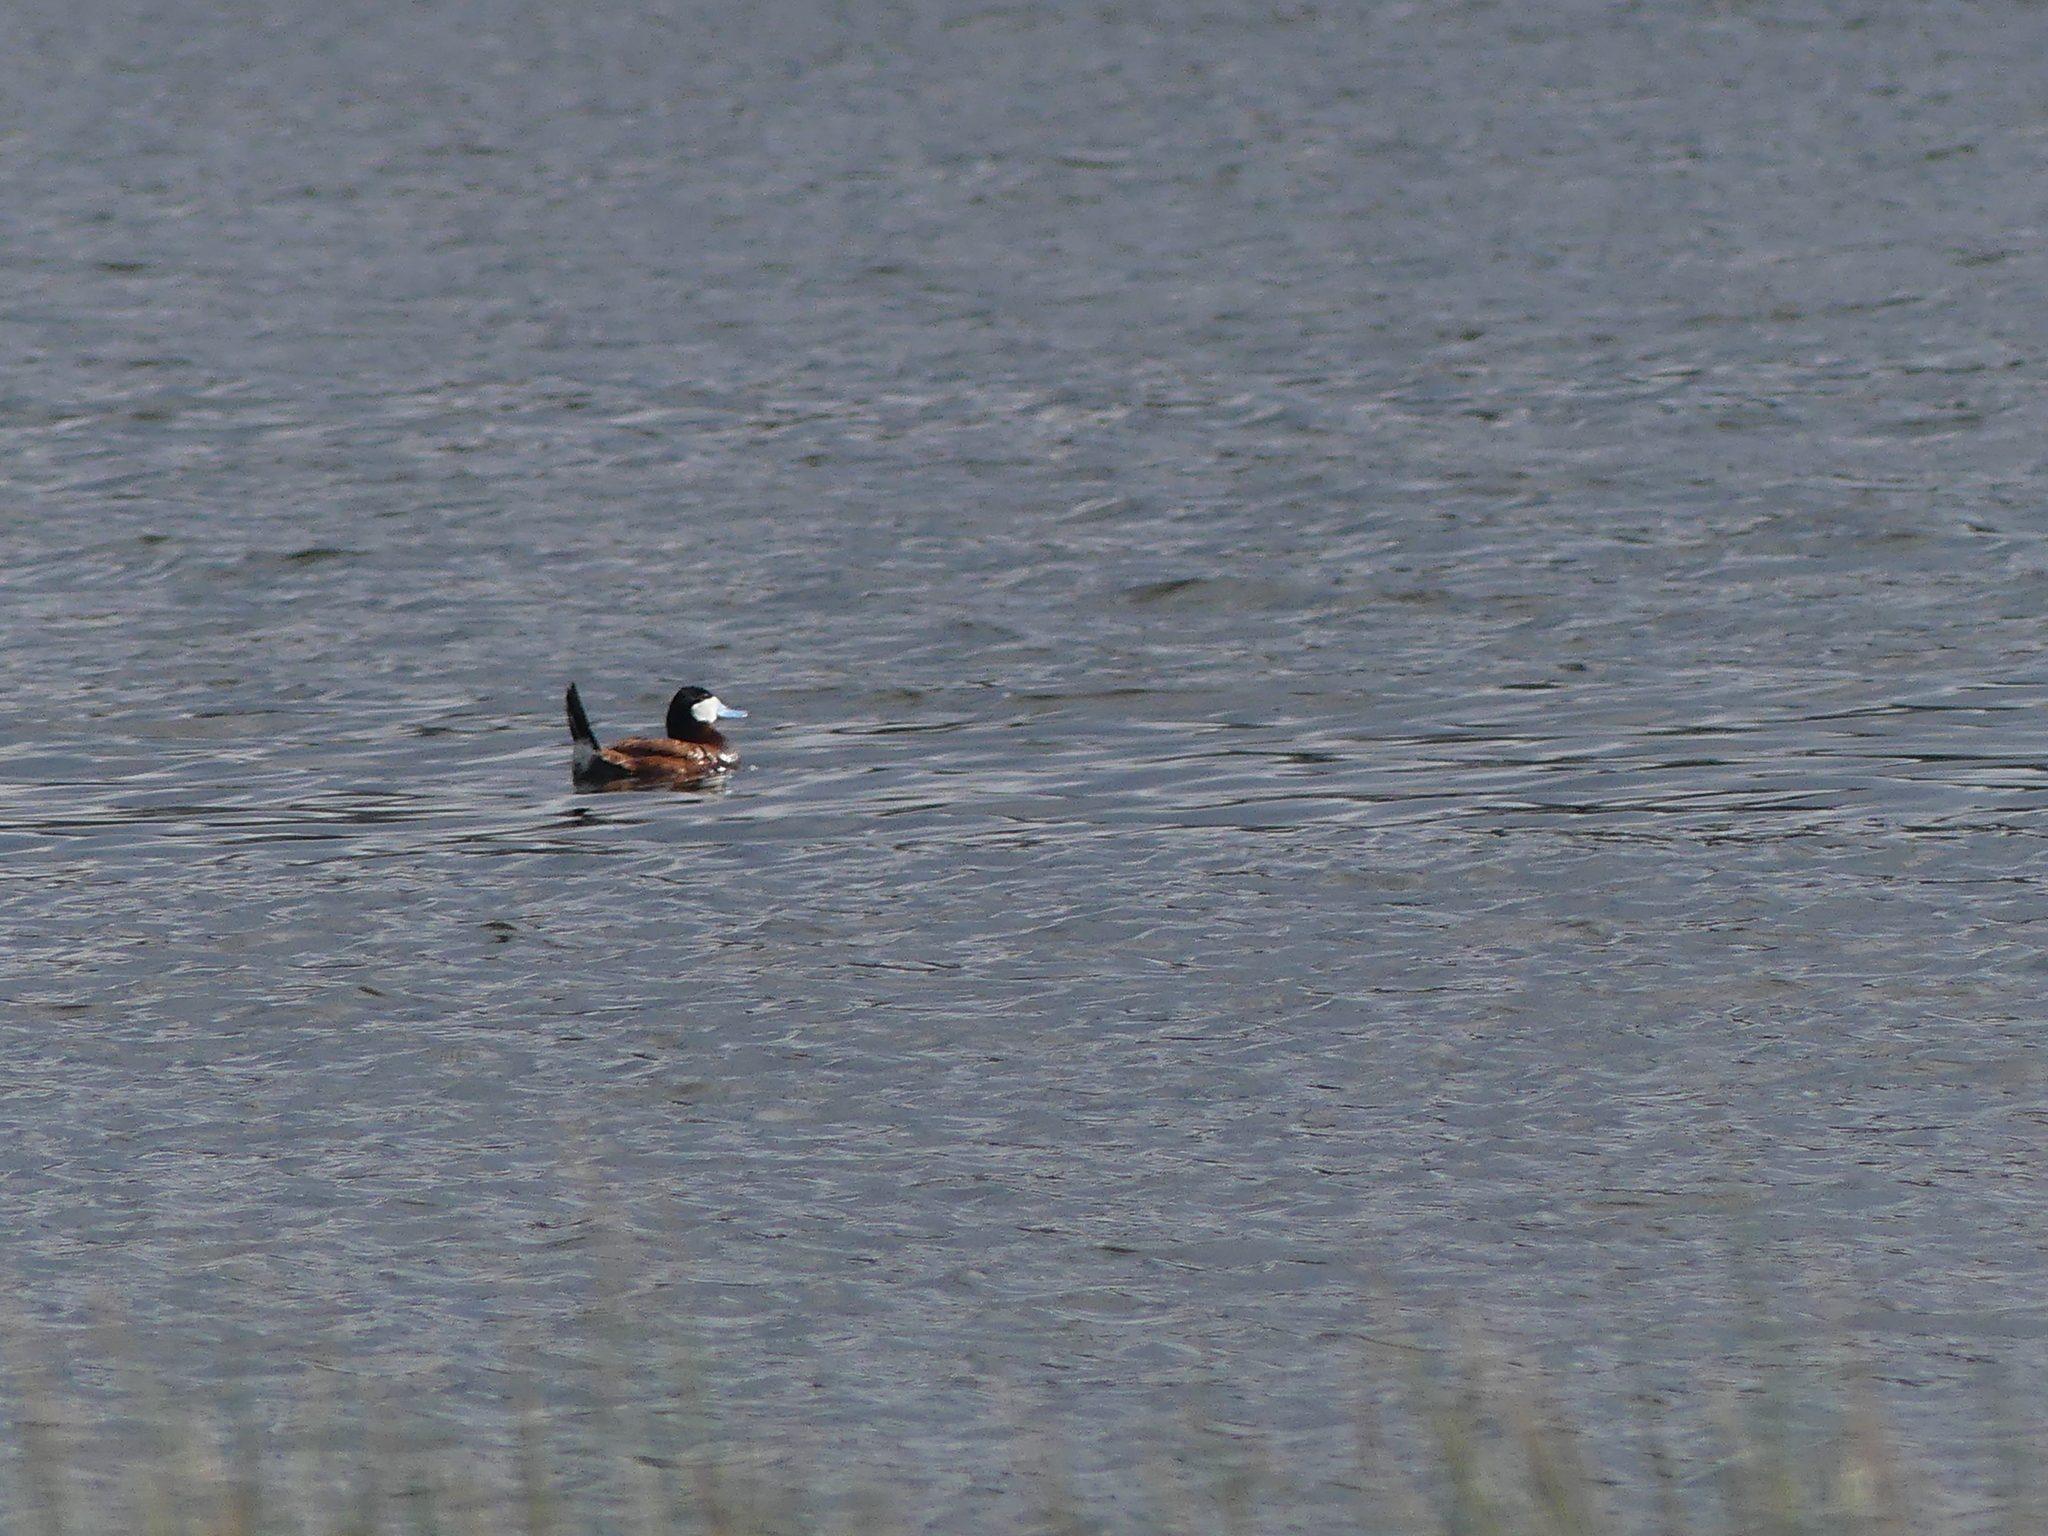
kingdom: Animalia
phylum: Chordata
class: Aves
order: Anseriformes
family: Anatidae
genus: Oxyura
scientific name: Oxyura jamaicensis
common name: Ruddy duck
